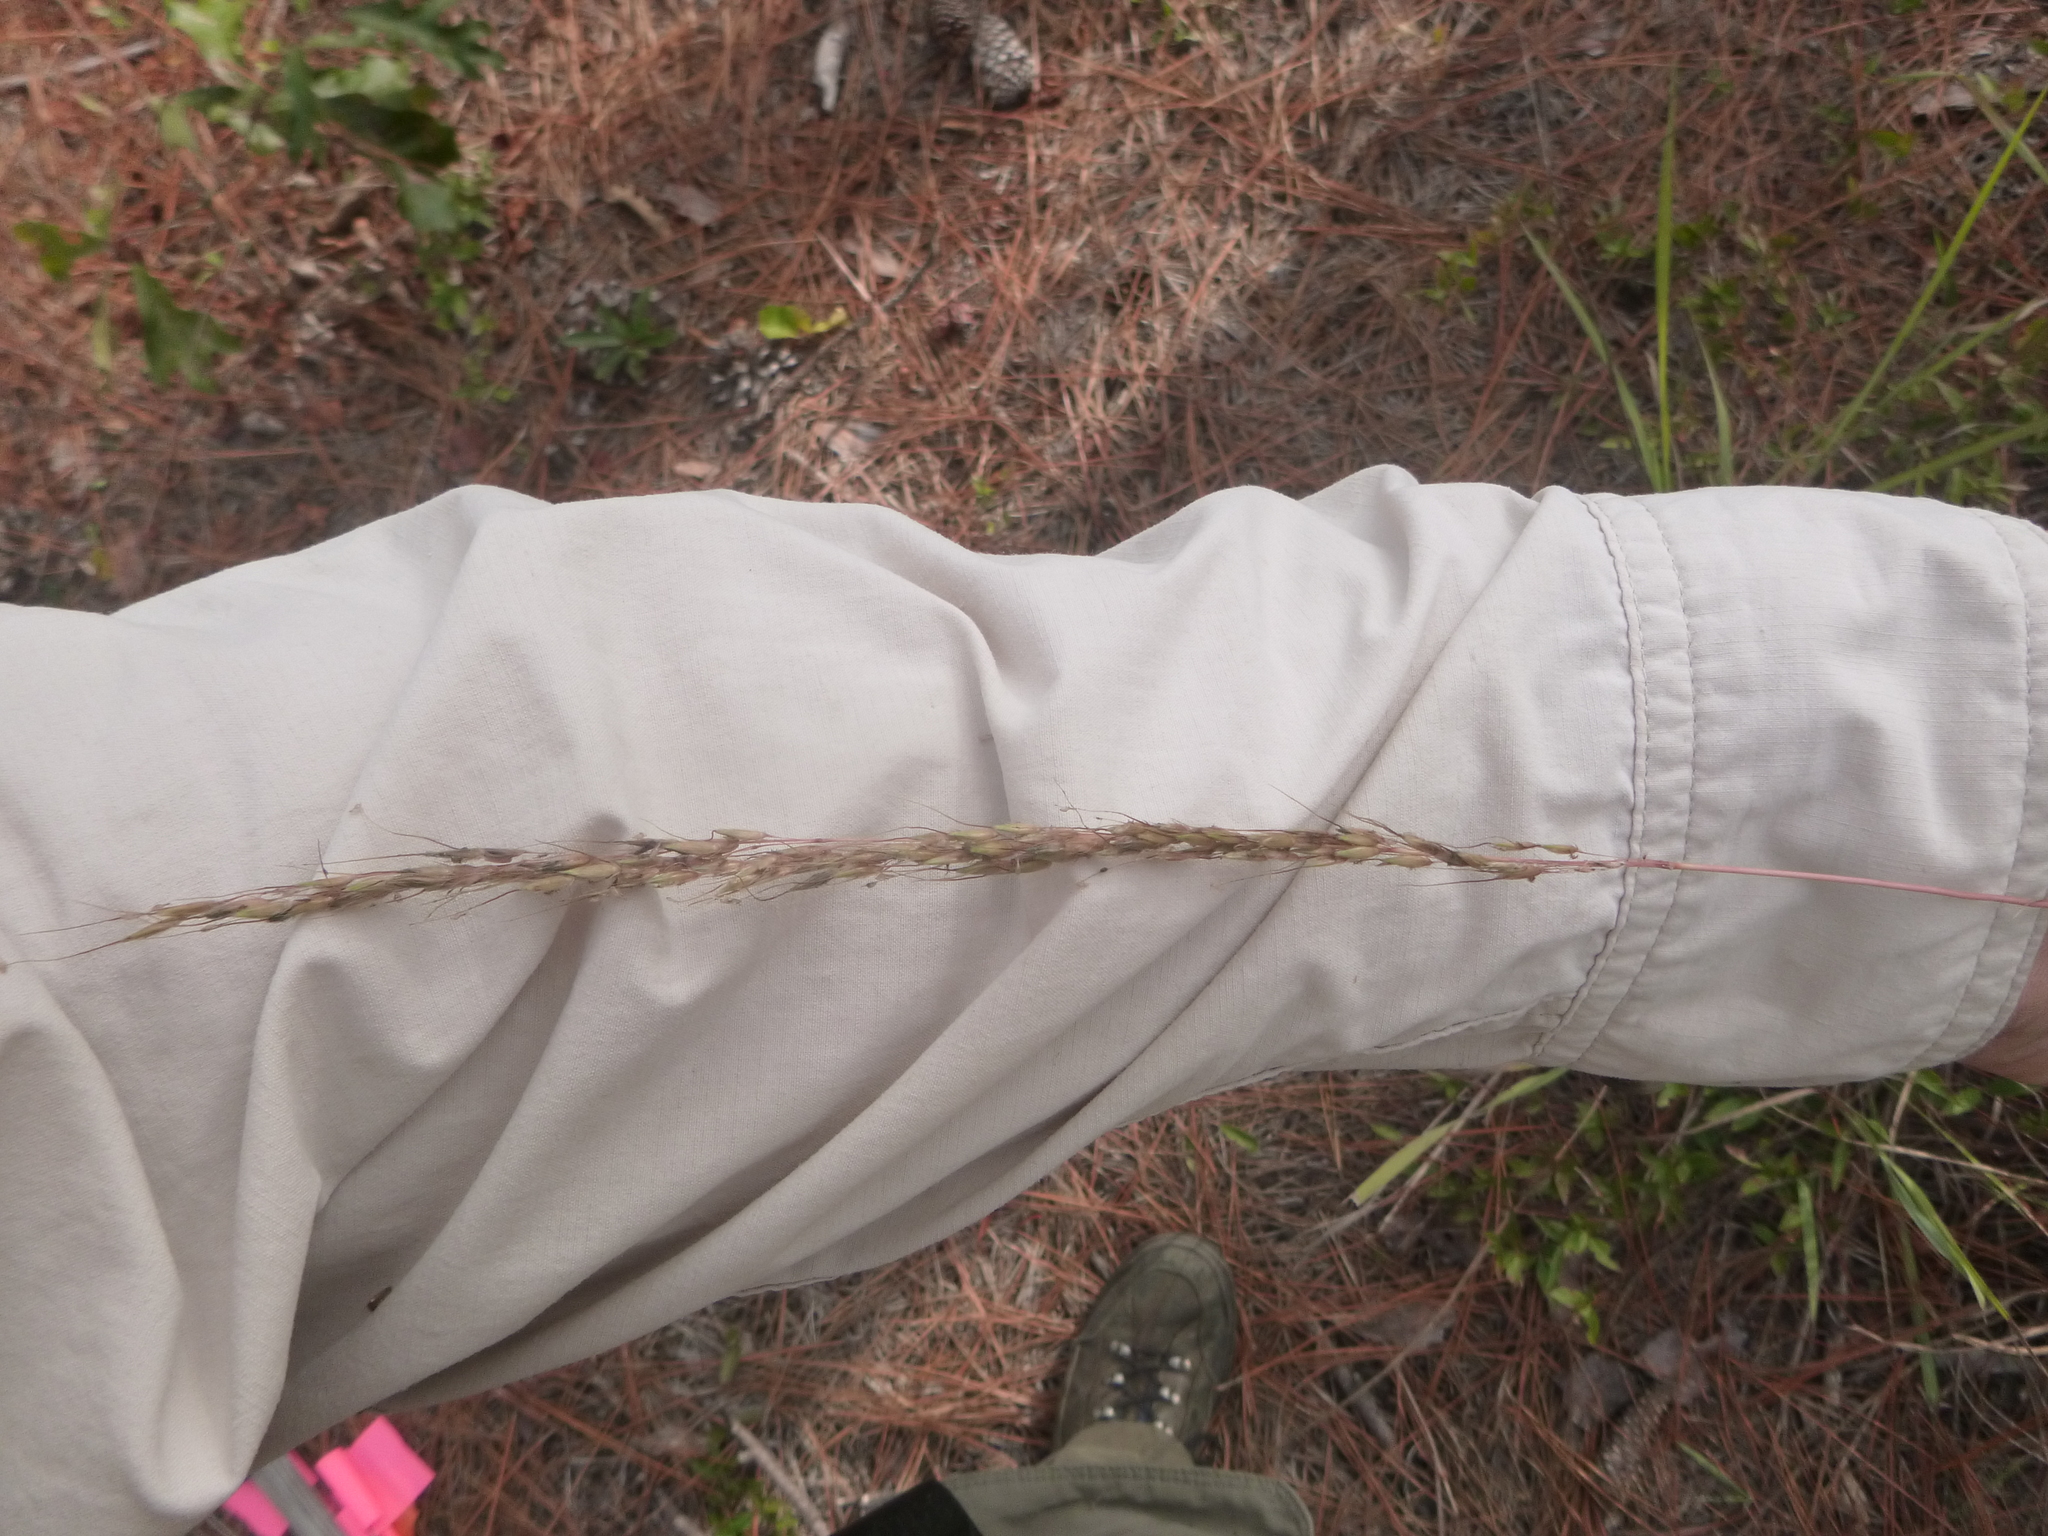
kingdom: Plantae
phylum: Tracheophyta
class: Liliopsida
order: Poales
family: Poaceae
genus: Sorghastrum
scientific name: Sorghastrum nutans
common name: Indian grass
